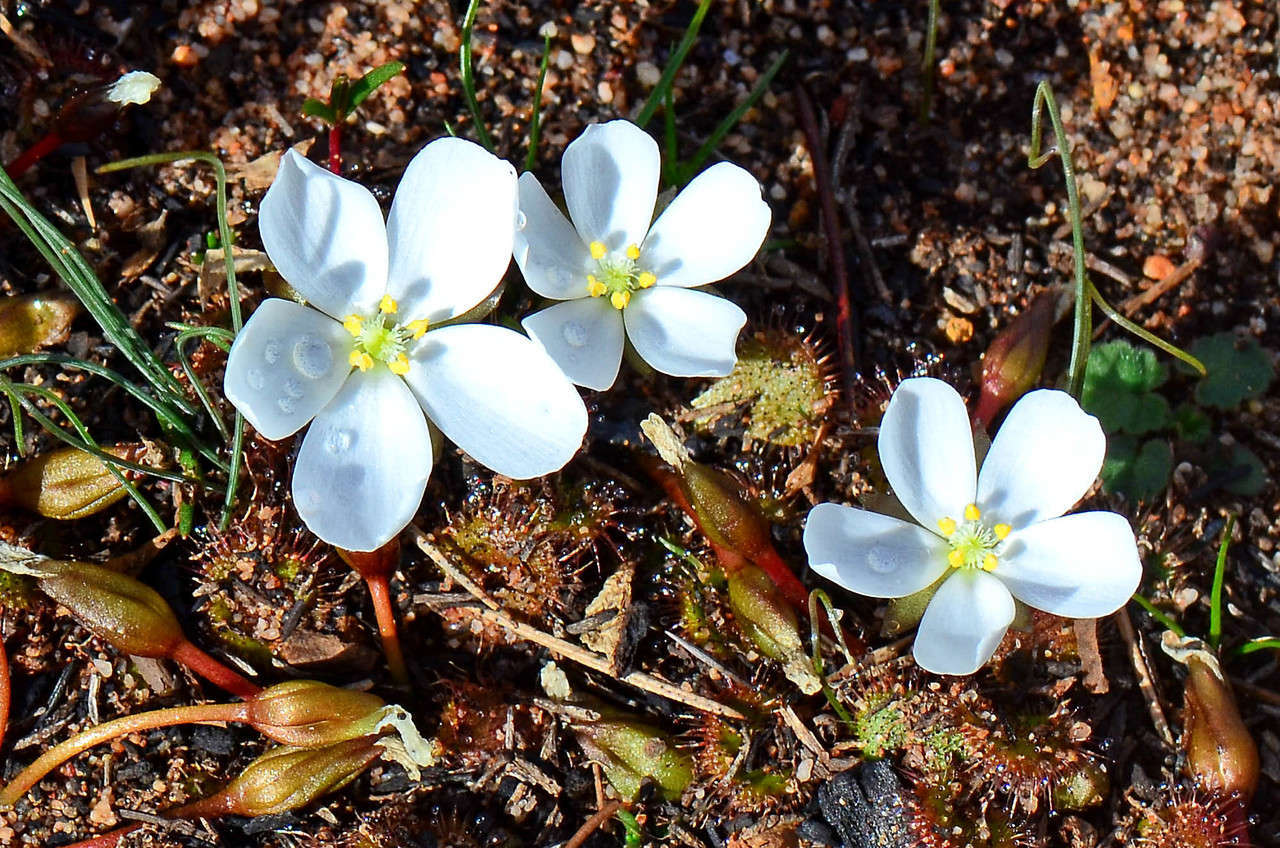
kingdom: Plantae
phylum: Tracheophyta
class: Magnoliopsida
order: Caryophyllales
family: Droseraceae
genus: Drosera
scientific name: Drosera aberrans
